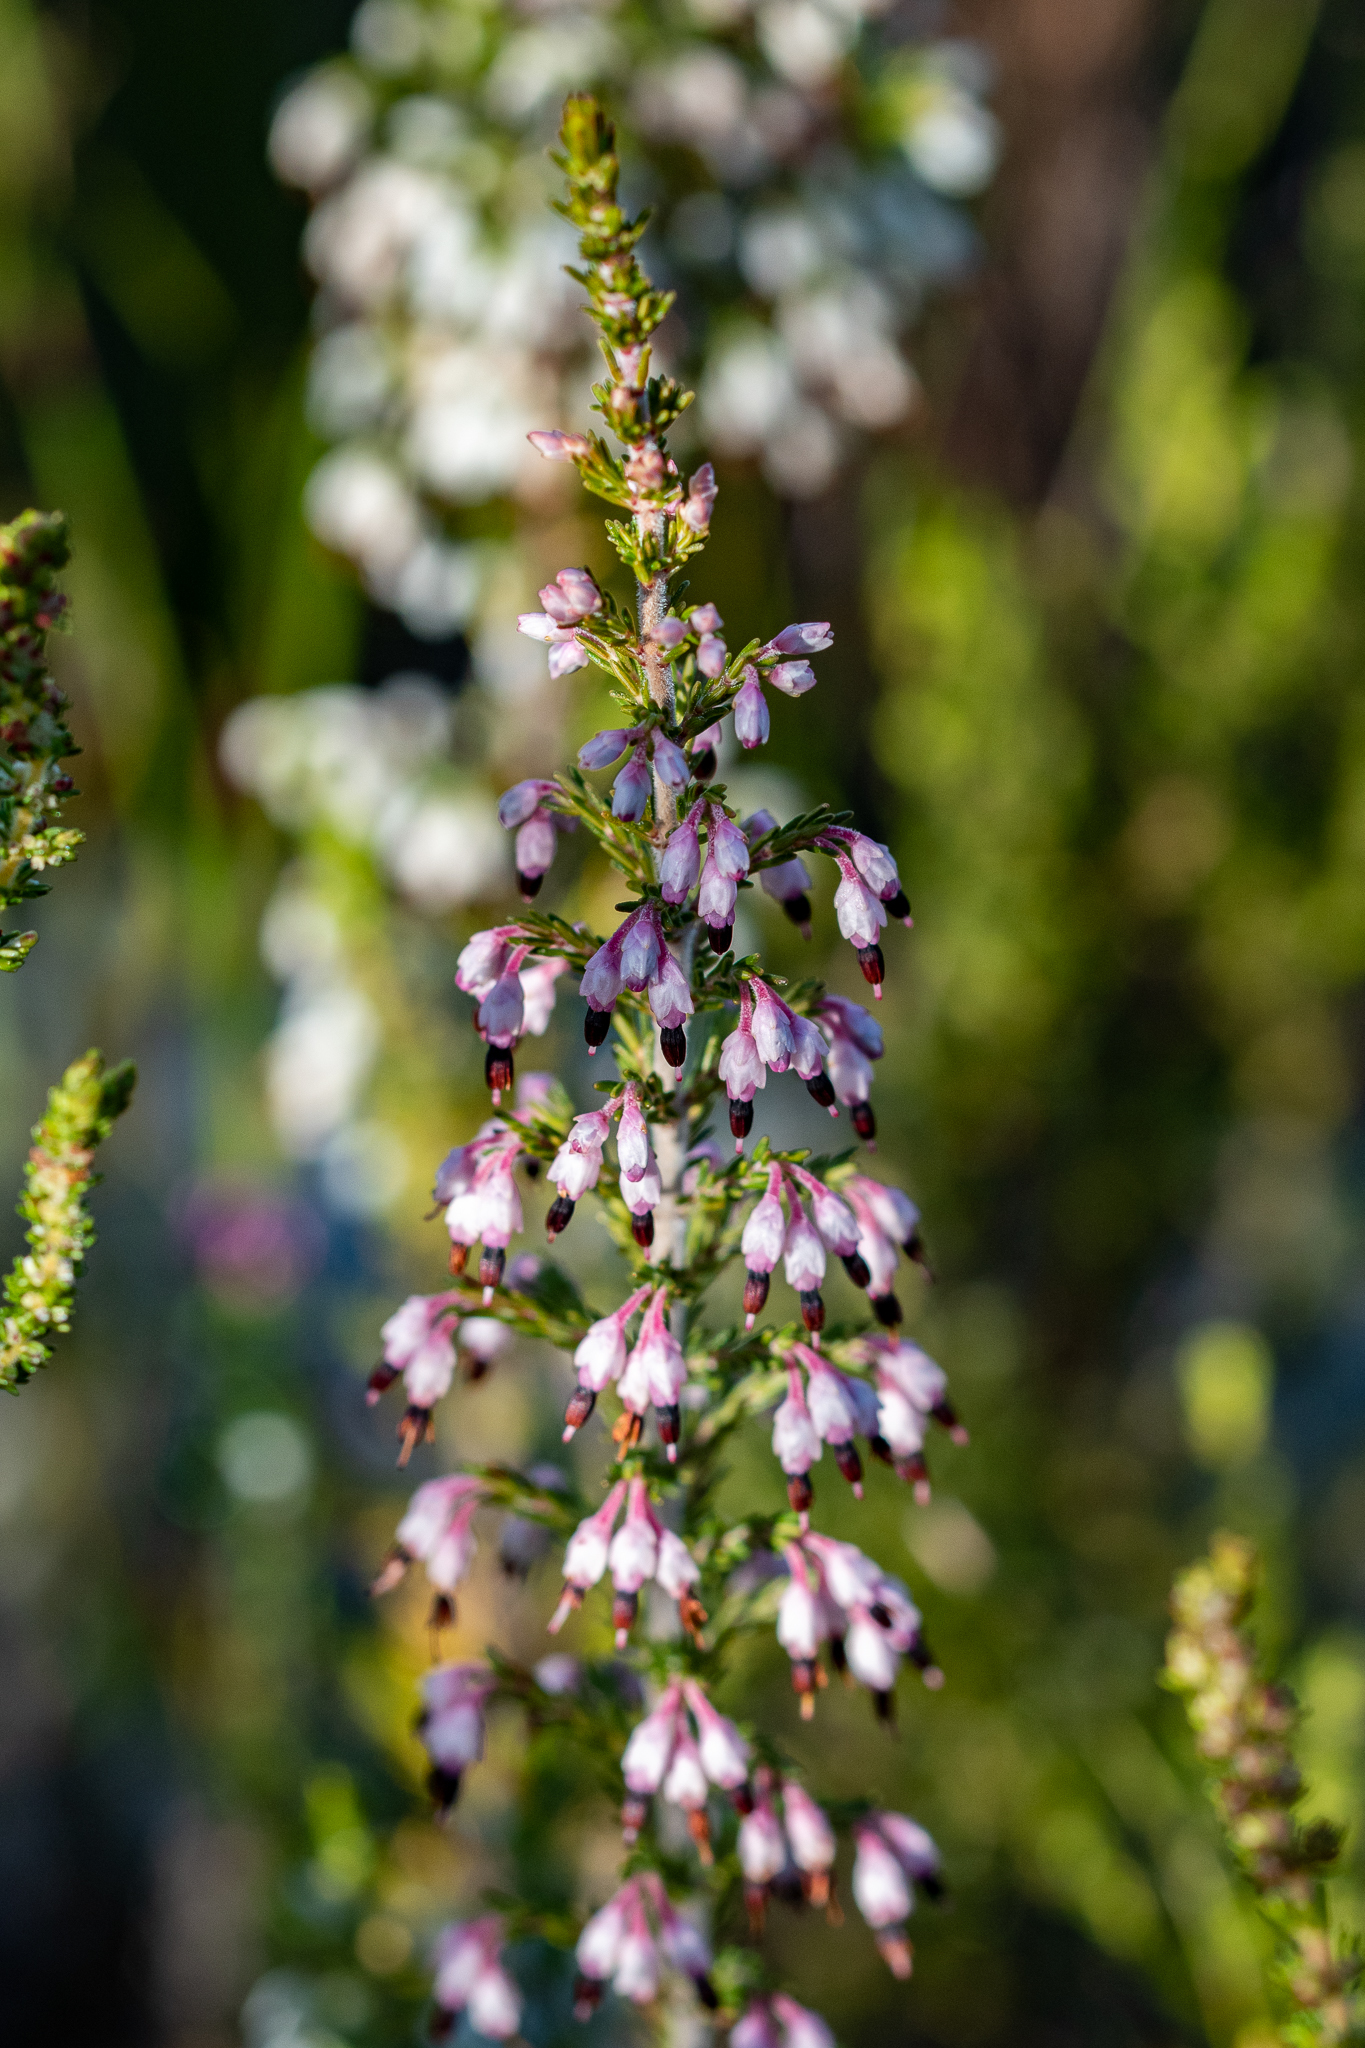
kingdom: Plantae
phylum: Tracheophyta
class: Magnoliopsida
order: Ericales
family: Ericaceae
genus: Erica
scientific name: Erica placentiflora
